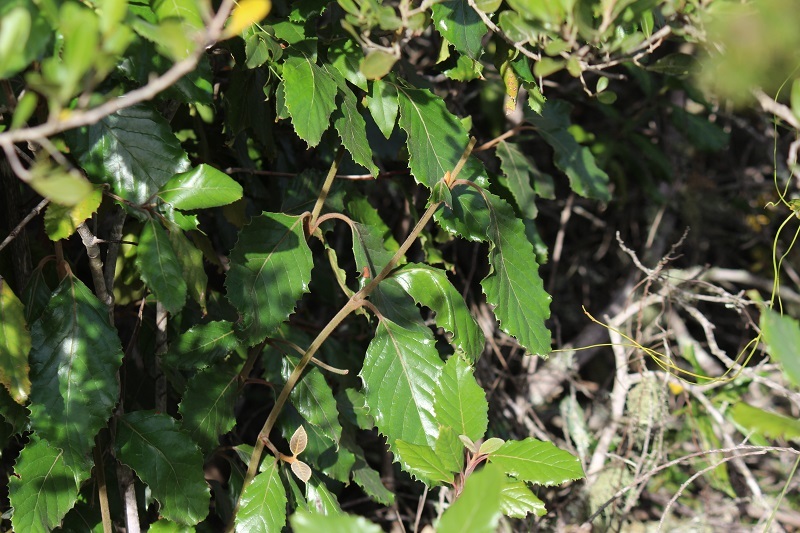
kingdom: Plantae
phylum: Tracheophyta
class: Magnoliopsida
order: Cornales
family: Curtisiaceae
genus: Curtisia
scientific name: Curtisia dentata
